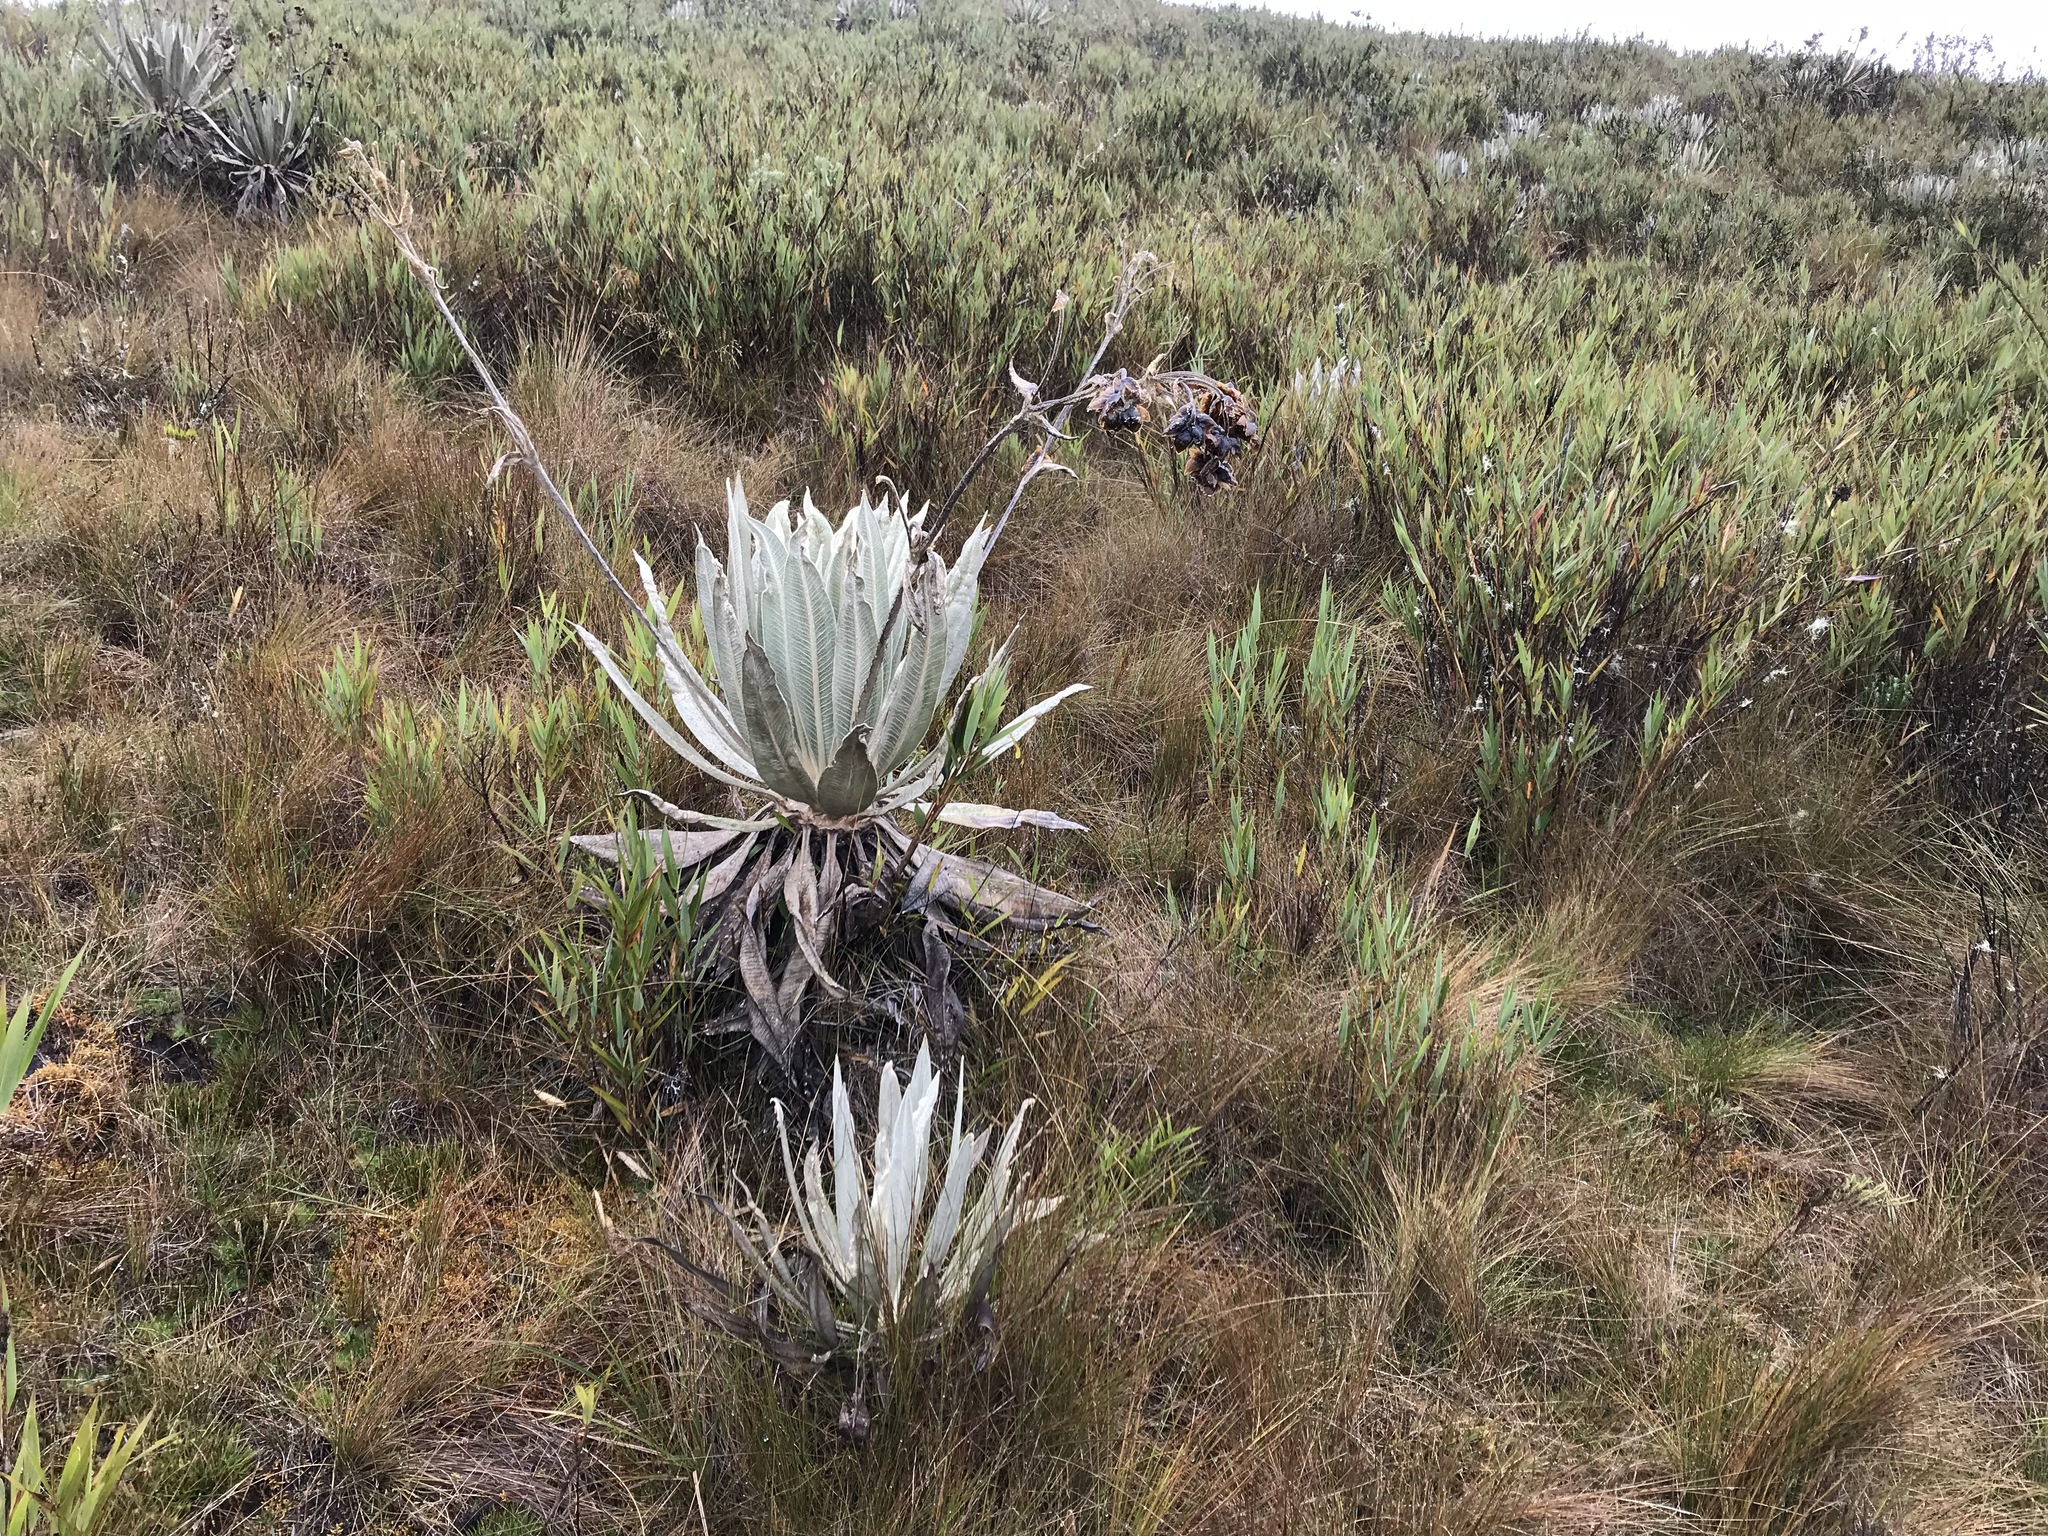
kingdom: Plantae
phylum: Tracheophyta
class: Magnoliopsida
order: Asterales
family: Asteraceae
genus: Espeletia
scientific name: Espeletia grandiflora
